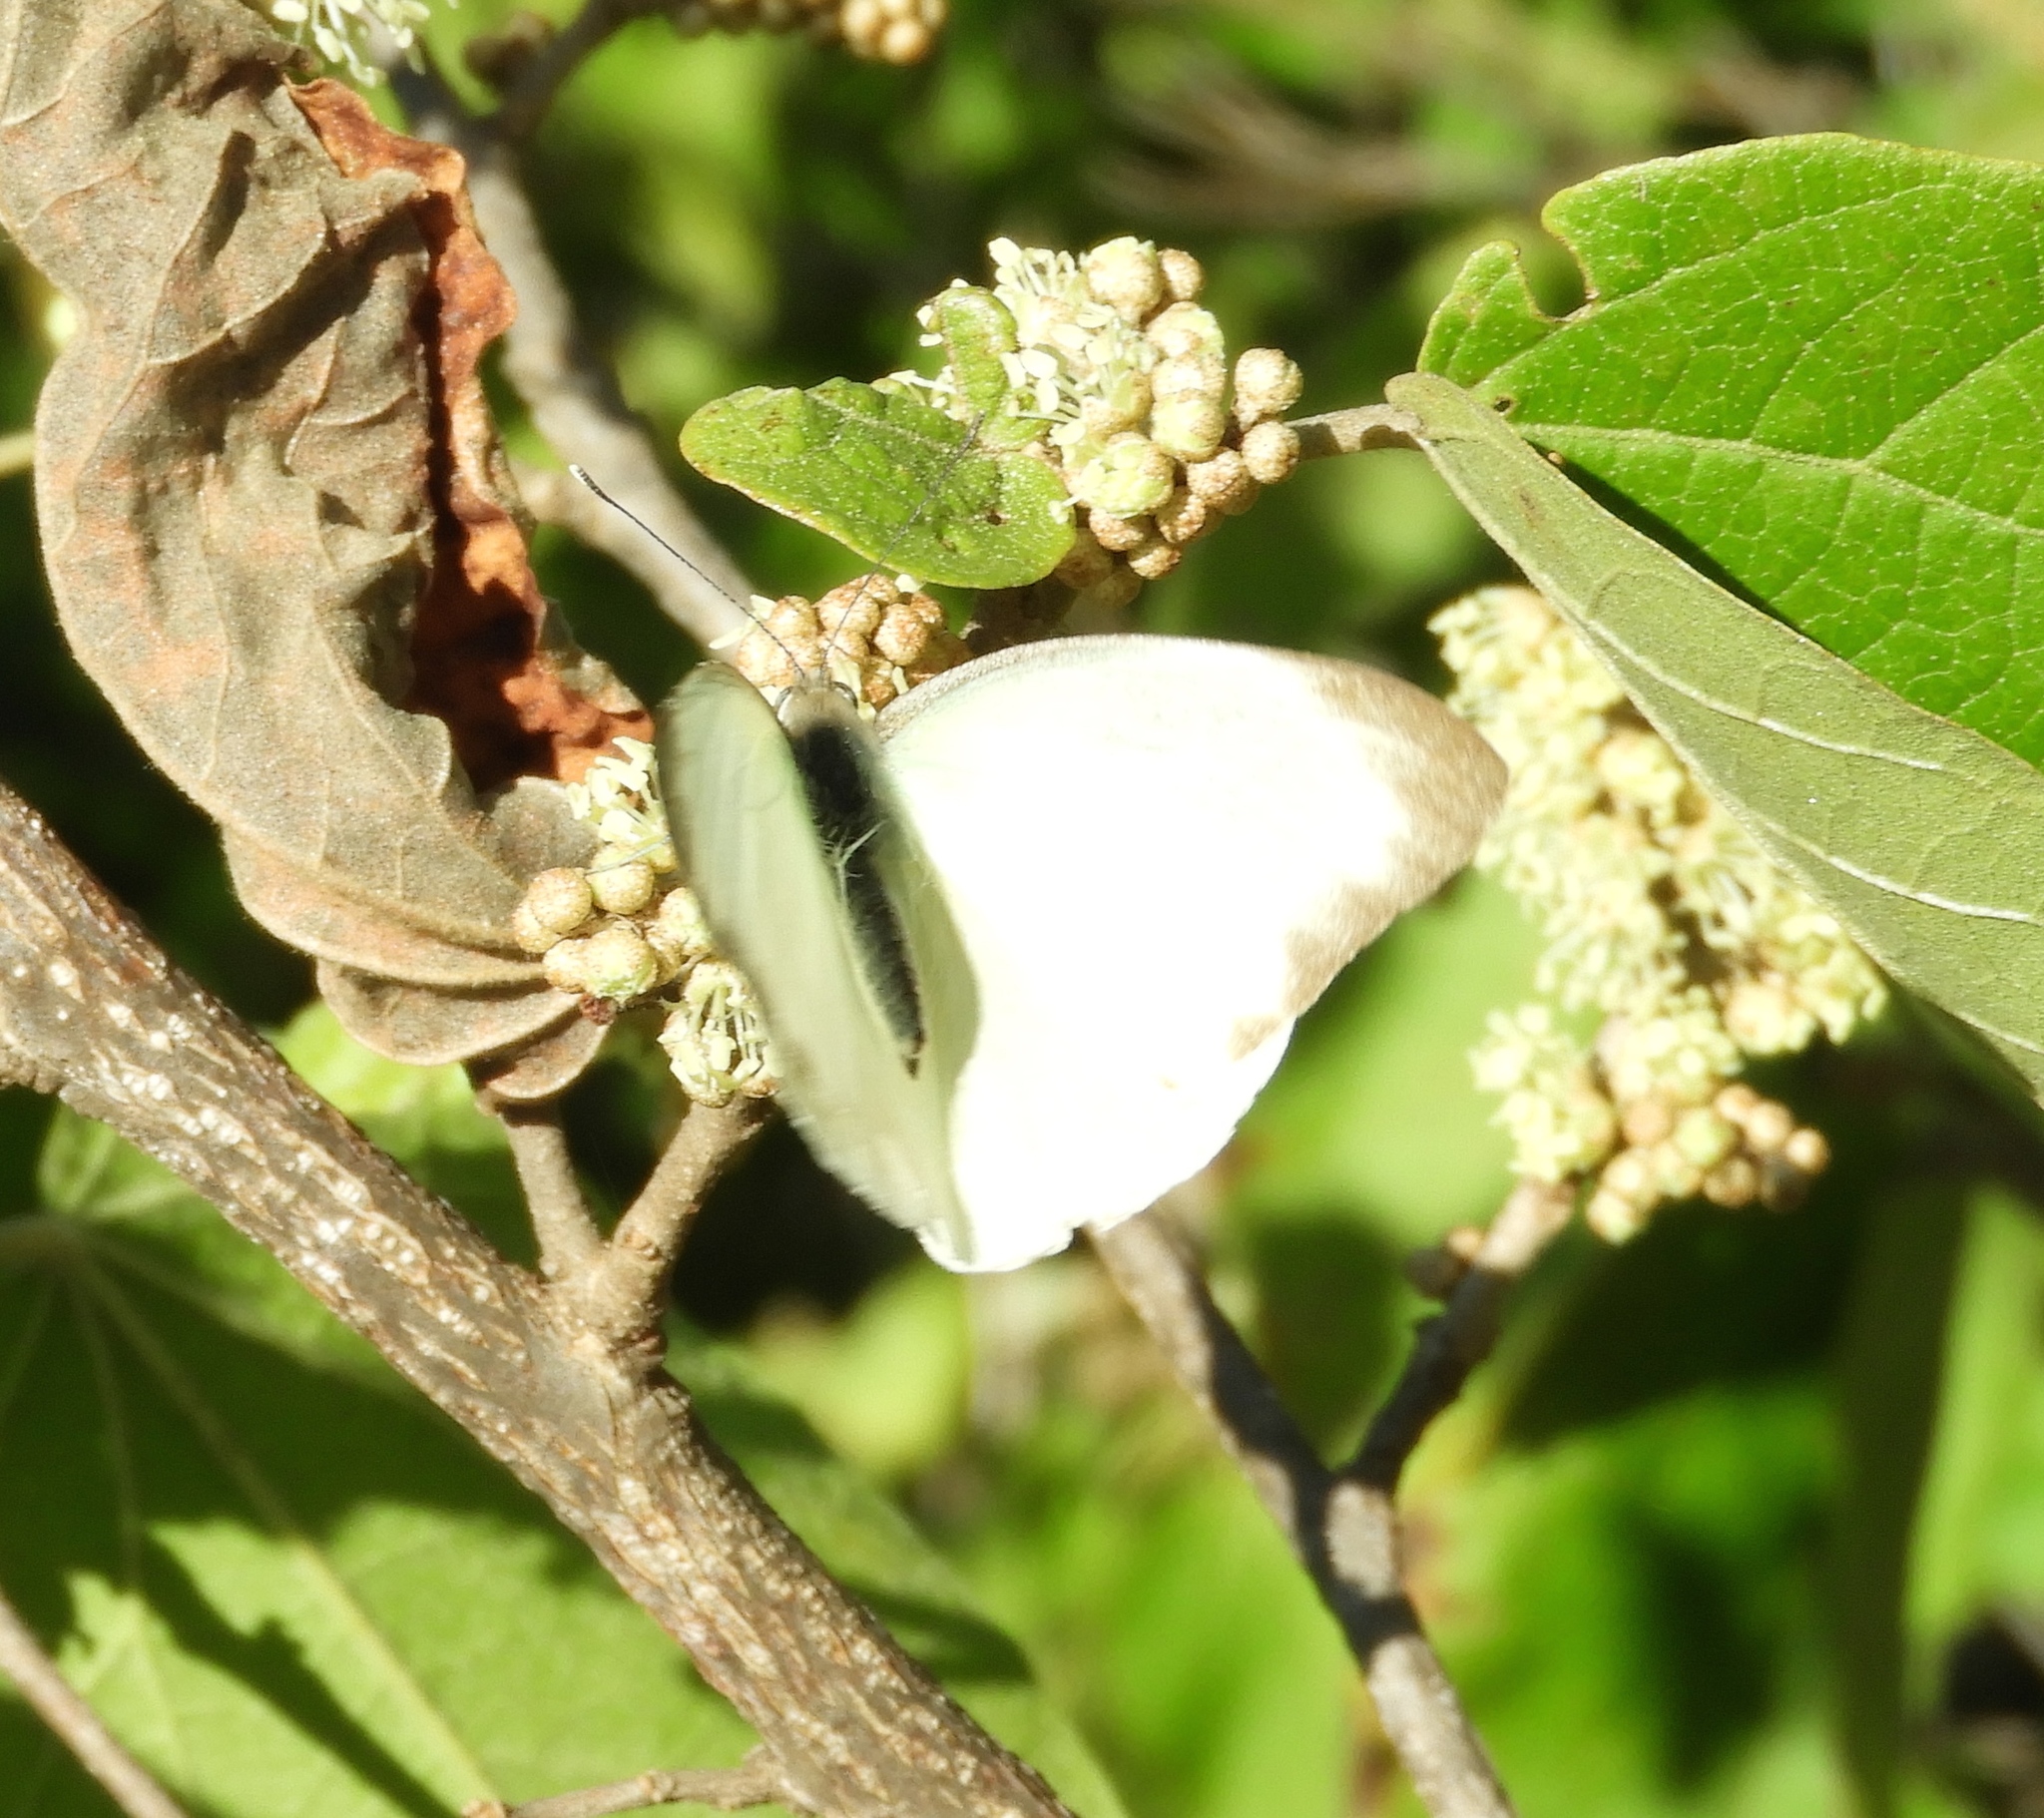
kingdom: Animalia
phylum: Arthropoda
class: Insecta
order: Lepidoptera
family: Pieridae
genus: Glutophrissa
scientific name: Glutophrissa drusilla
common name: Florida white
